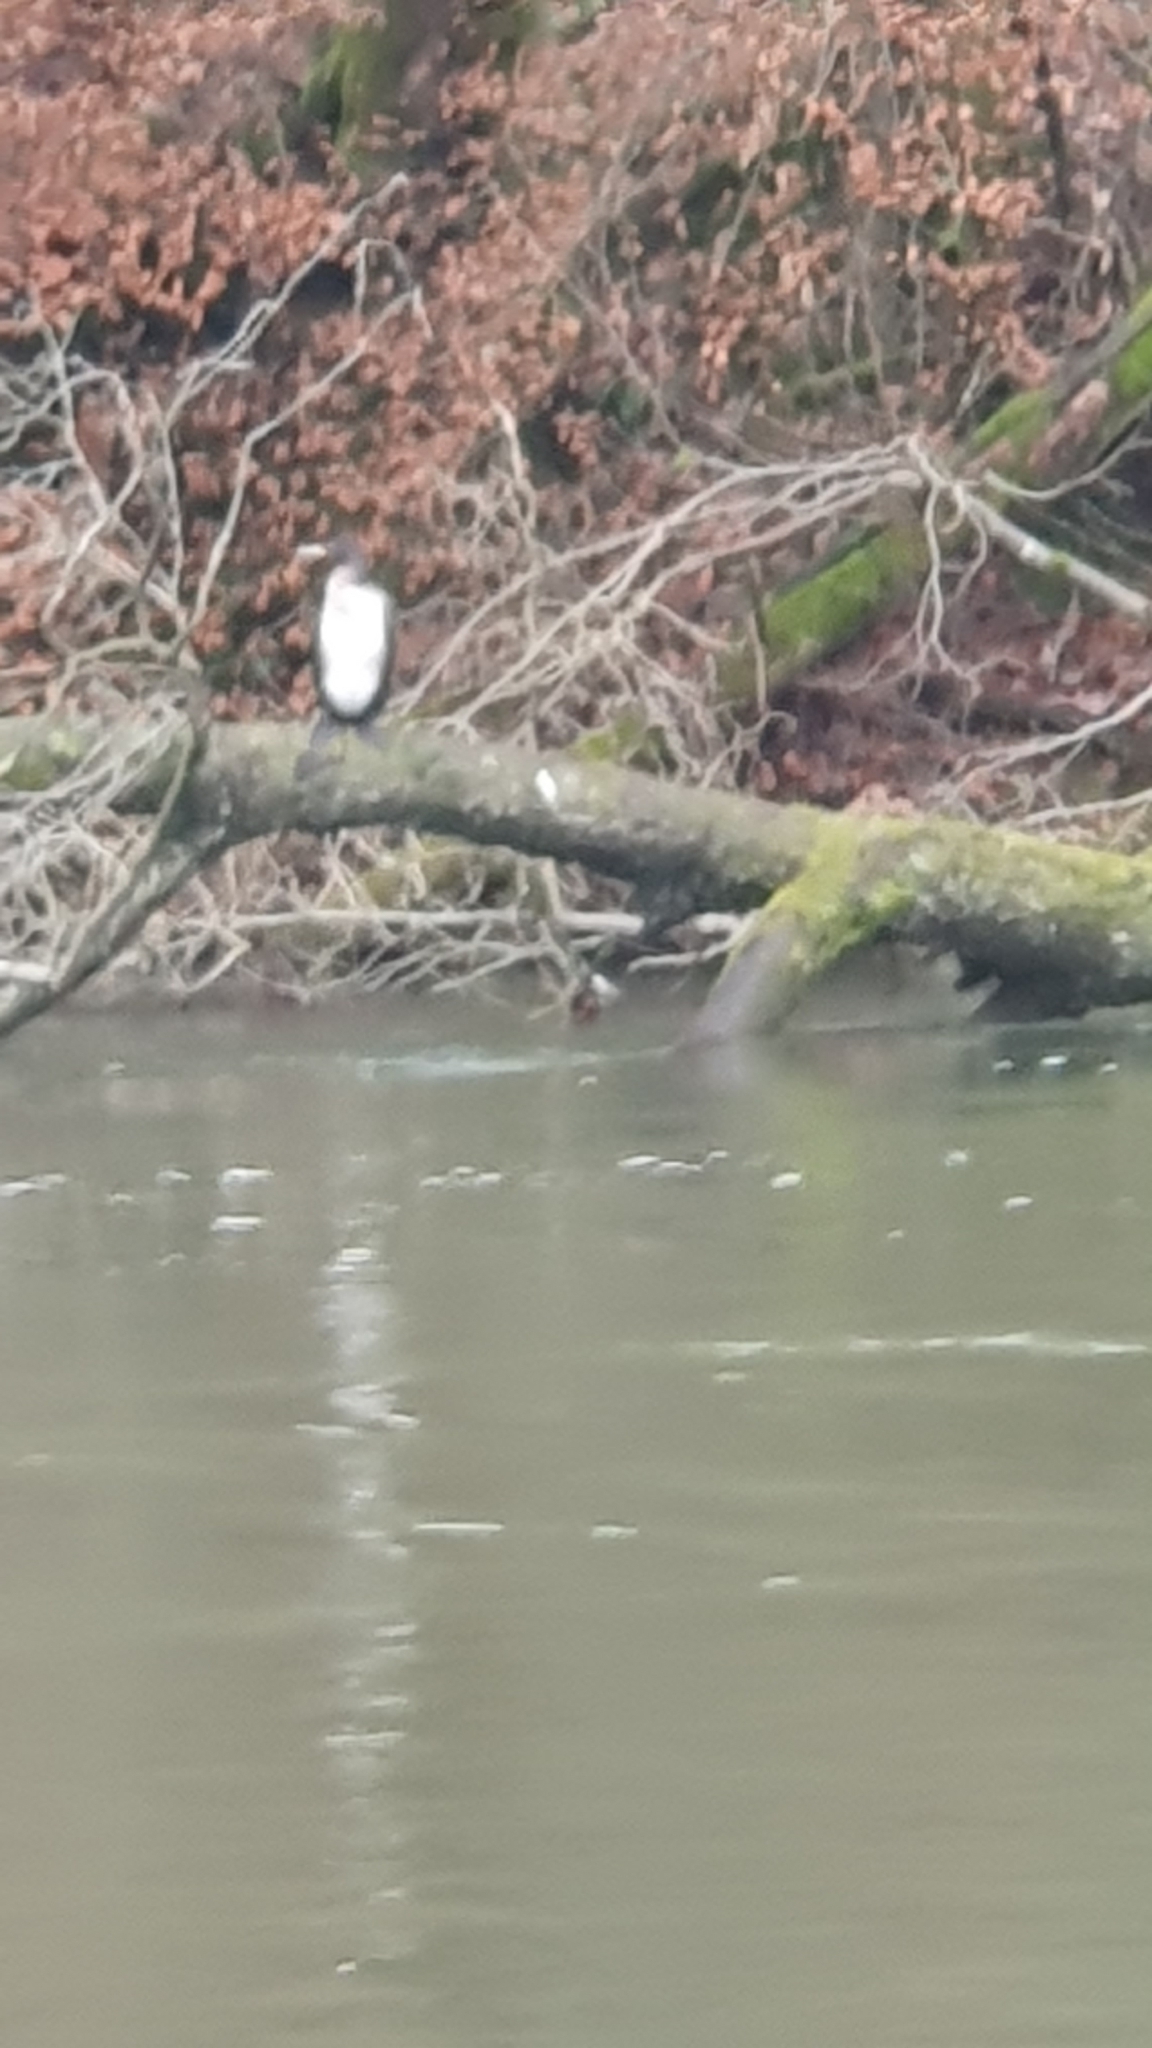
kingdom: Animalia
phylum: Chordata
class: Aves
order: Suliformes
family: Phalacrocoracidae
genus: Phalacrocorax
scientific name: Phalacrocorax carbo
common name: Great cormorant
